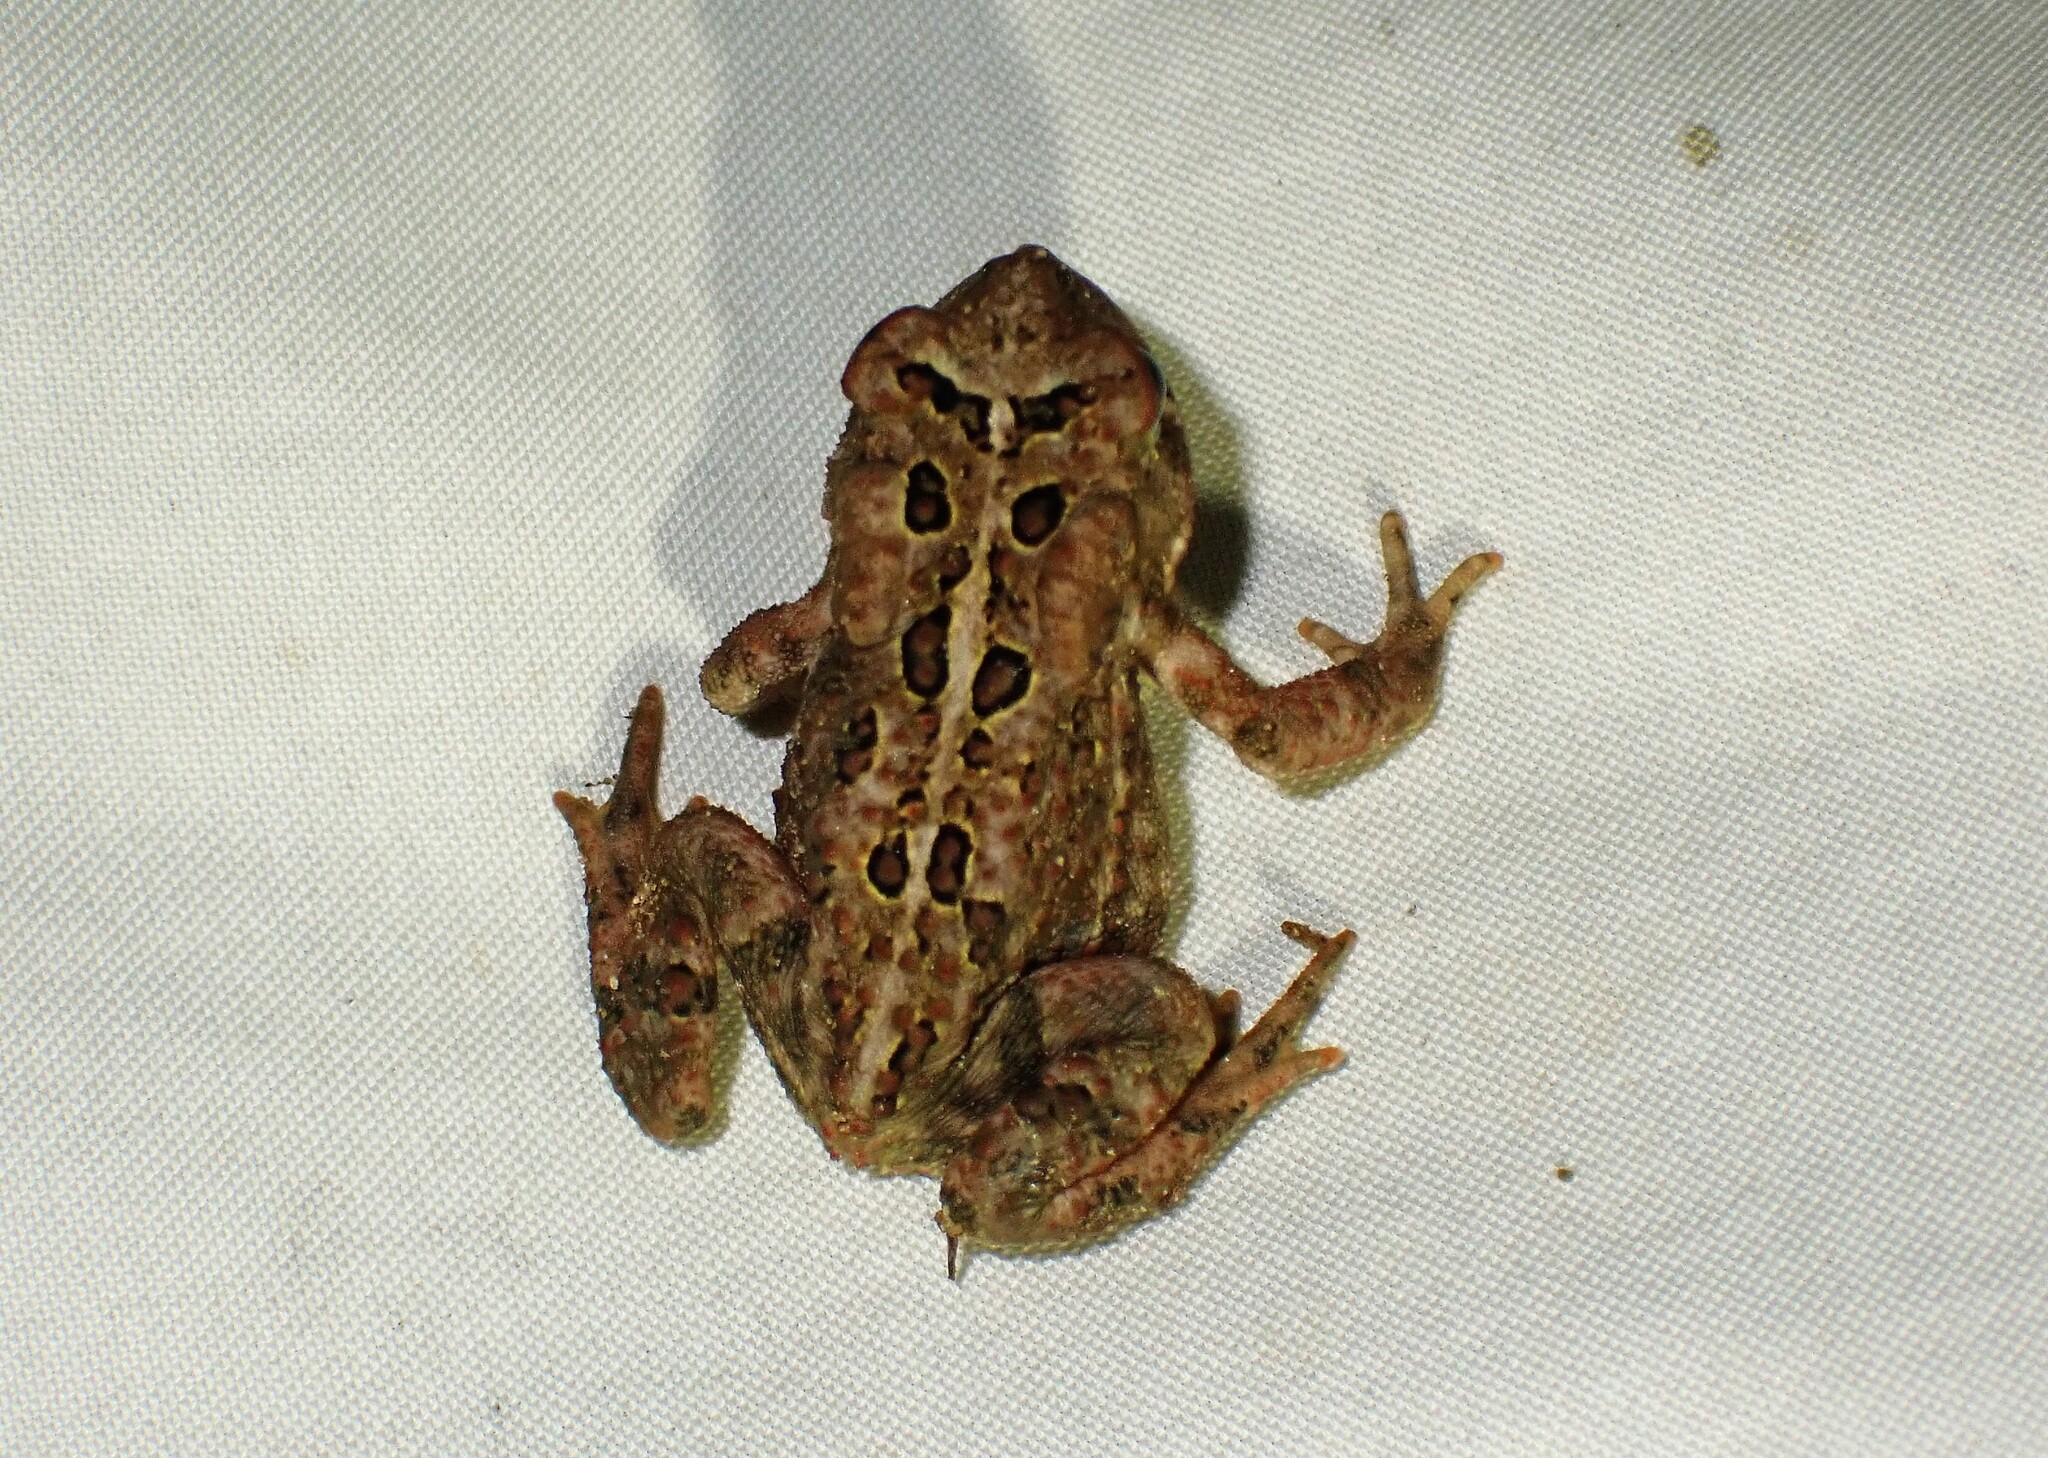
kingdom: Animalia
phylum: Chordata
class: Amphibia
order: Anura
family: Bufonidae
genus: Anaxyrus
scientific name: Anaxyrus americanus
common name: American toad
